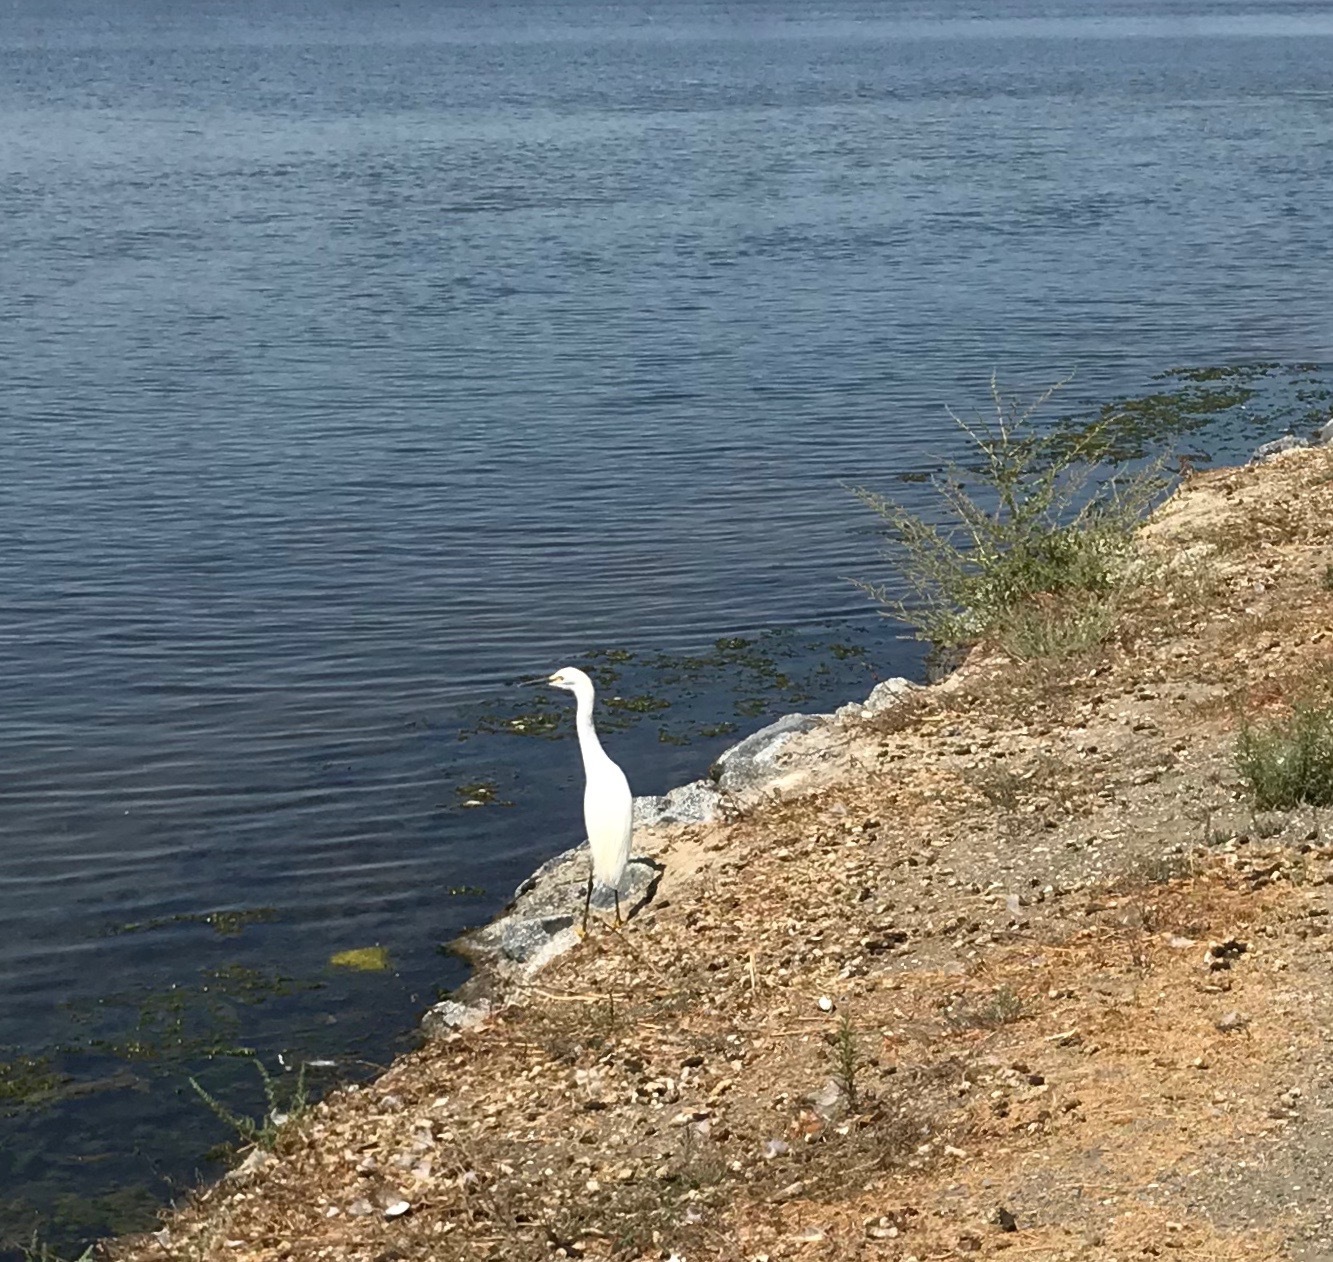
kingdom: Animalia
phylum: Chordata
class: Aves
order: Pelecaniformes
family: Ardeidae
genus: Egretta
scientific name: Egretta thula
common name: Snowy egret
